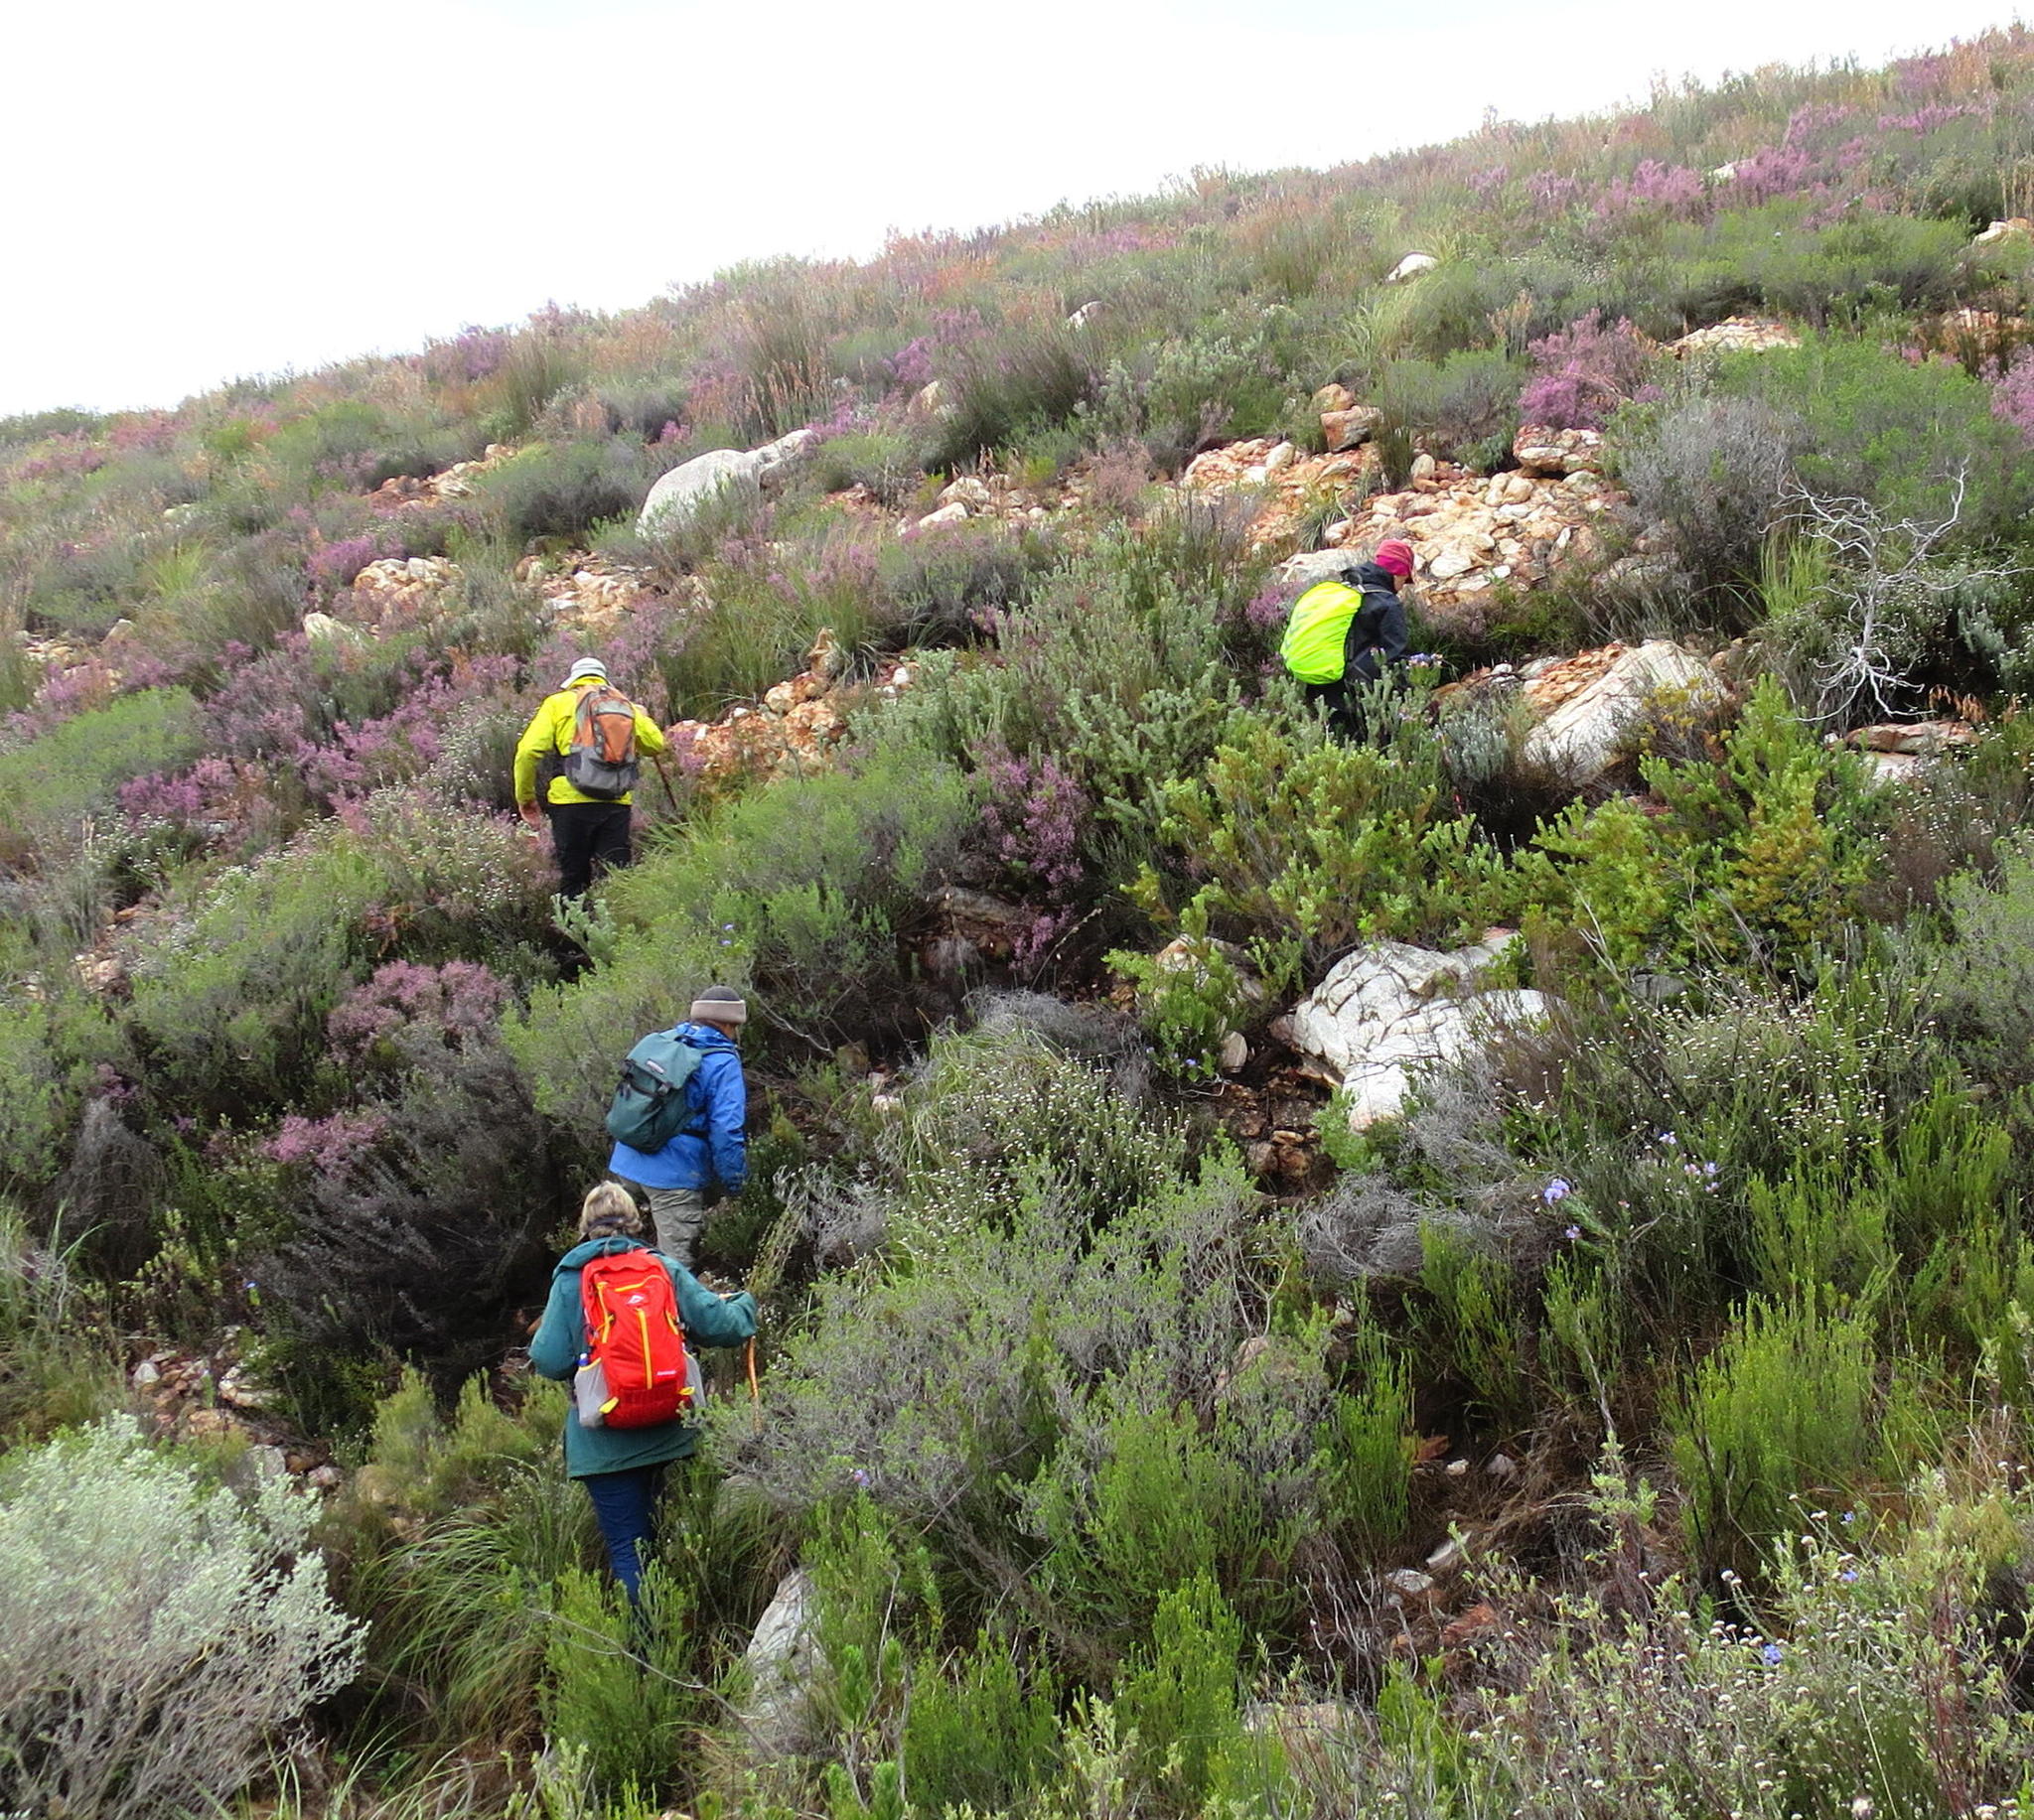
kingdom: Plantae
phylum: Tracheophyta
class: Magnoliopsida
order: Ericales
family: Ericaceae
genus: Erica
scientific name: Erica vlokii
